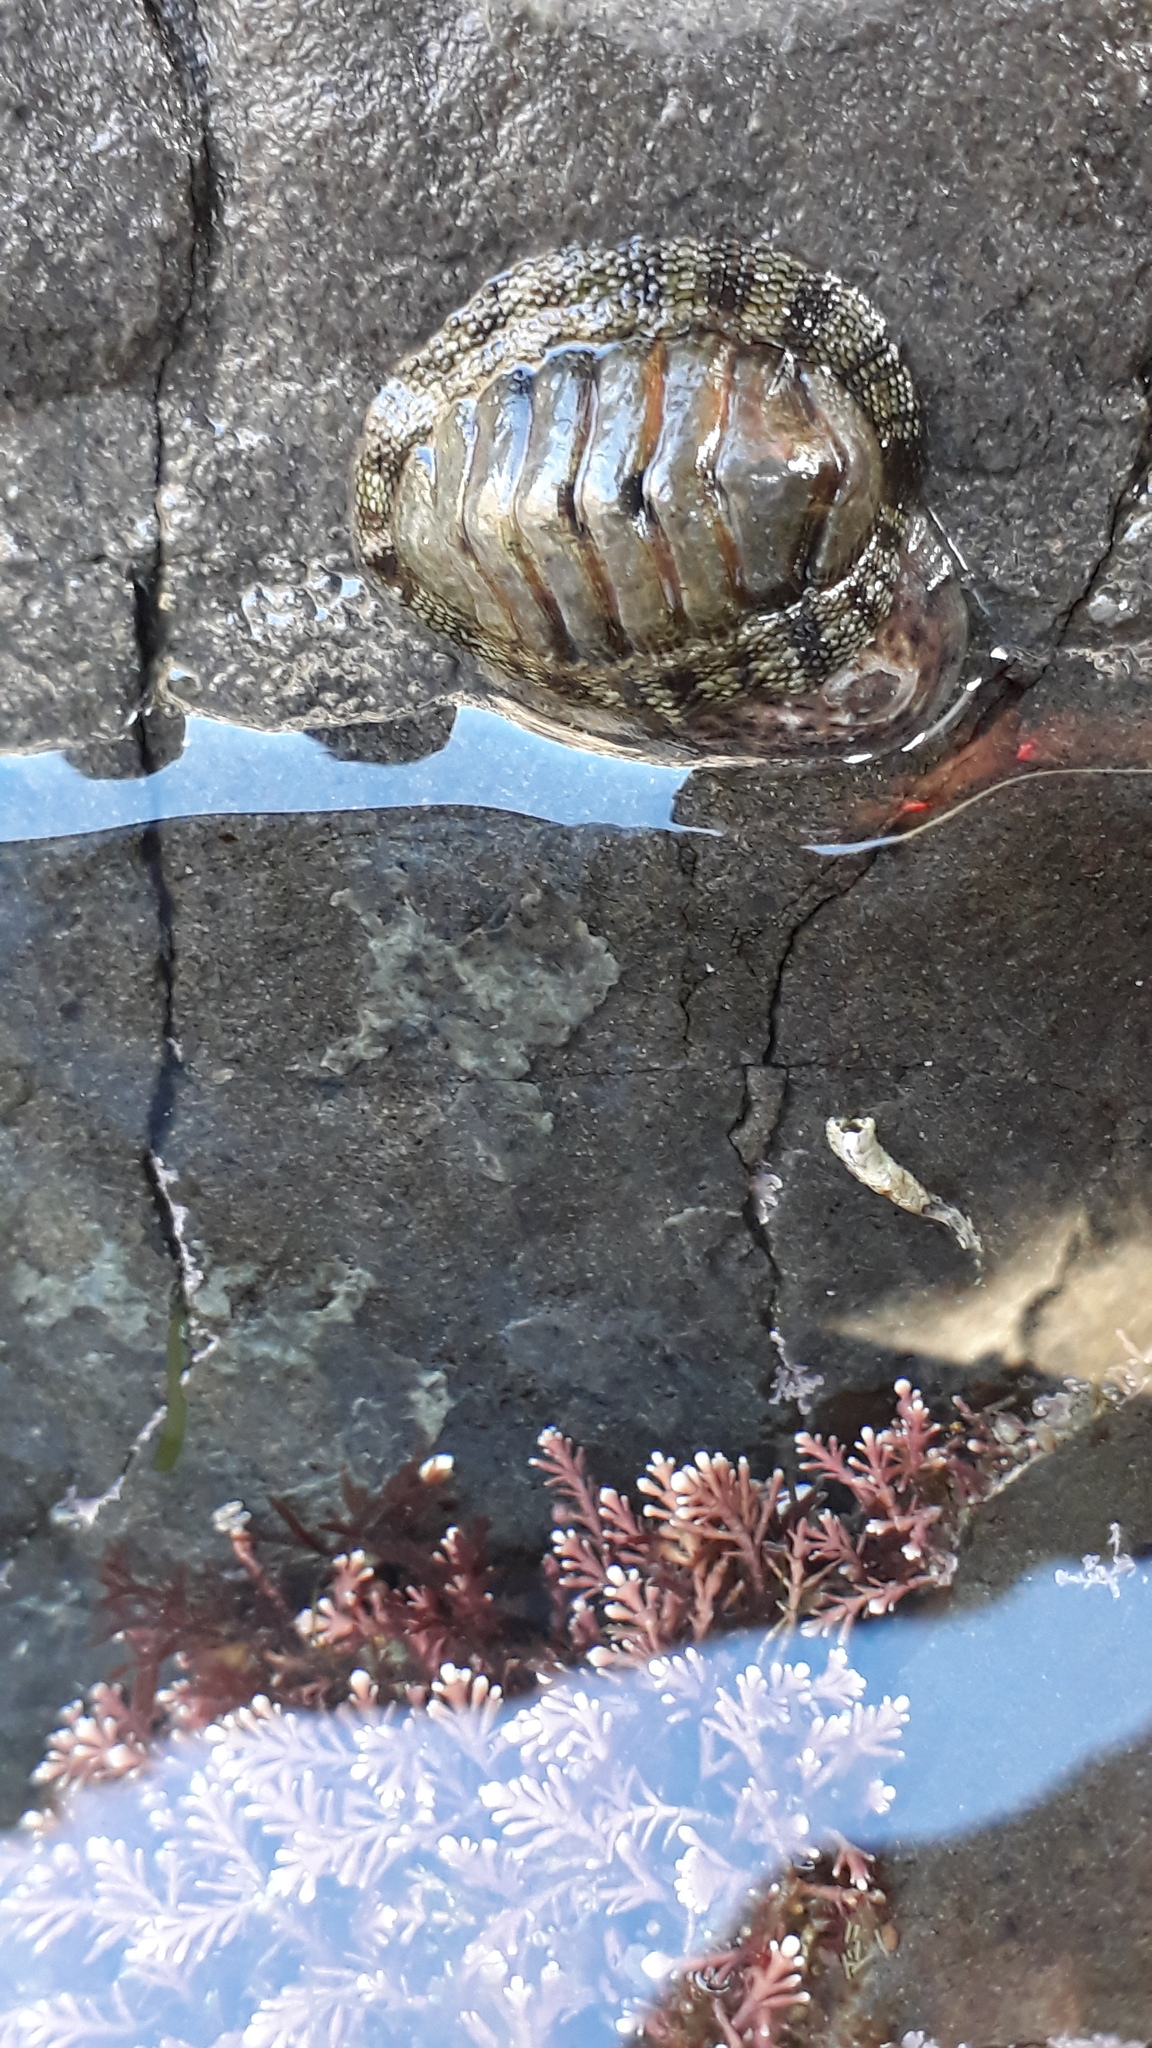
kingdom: Animalia
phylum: Mollusca
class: Polyplacophora
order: Chitonida
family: Chitonidae
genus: Sypharochiton
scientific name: Sypharochiton pelliserpentis
